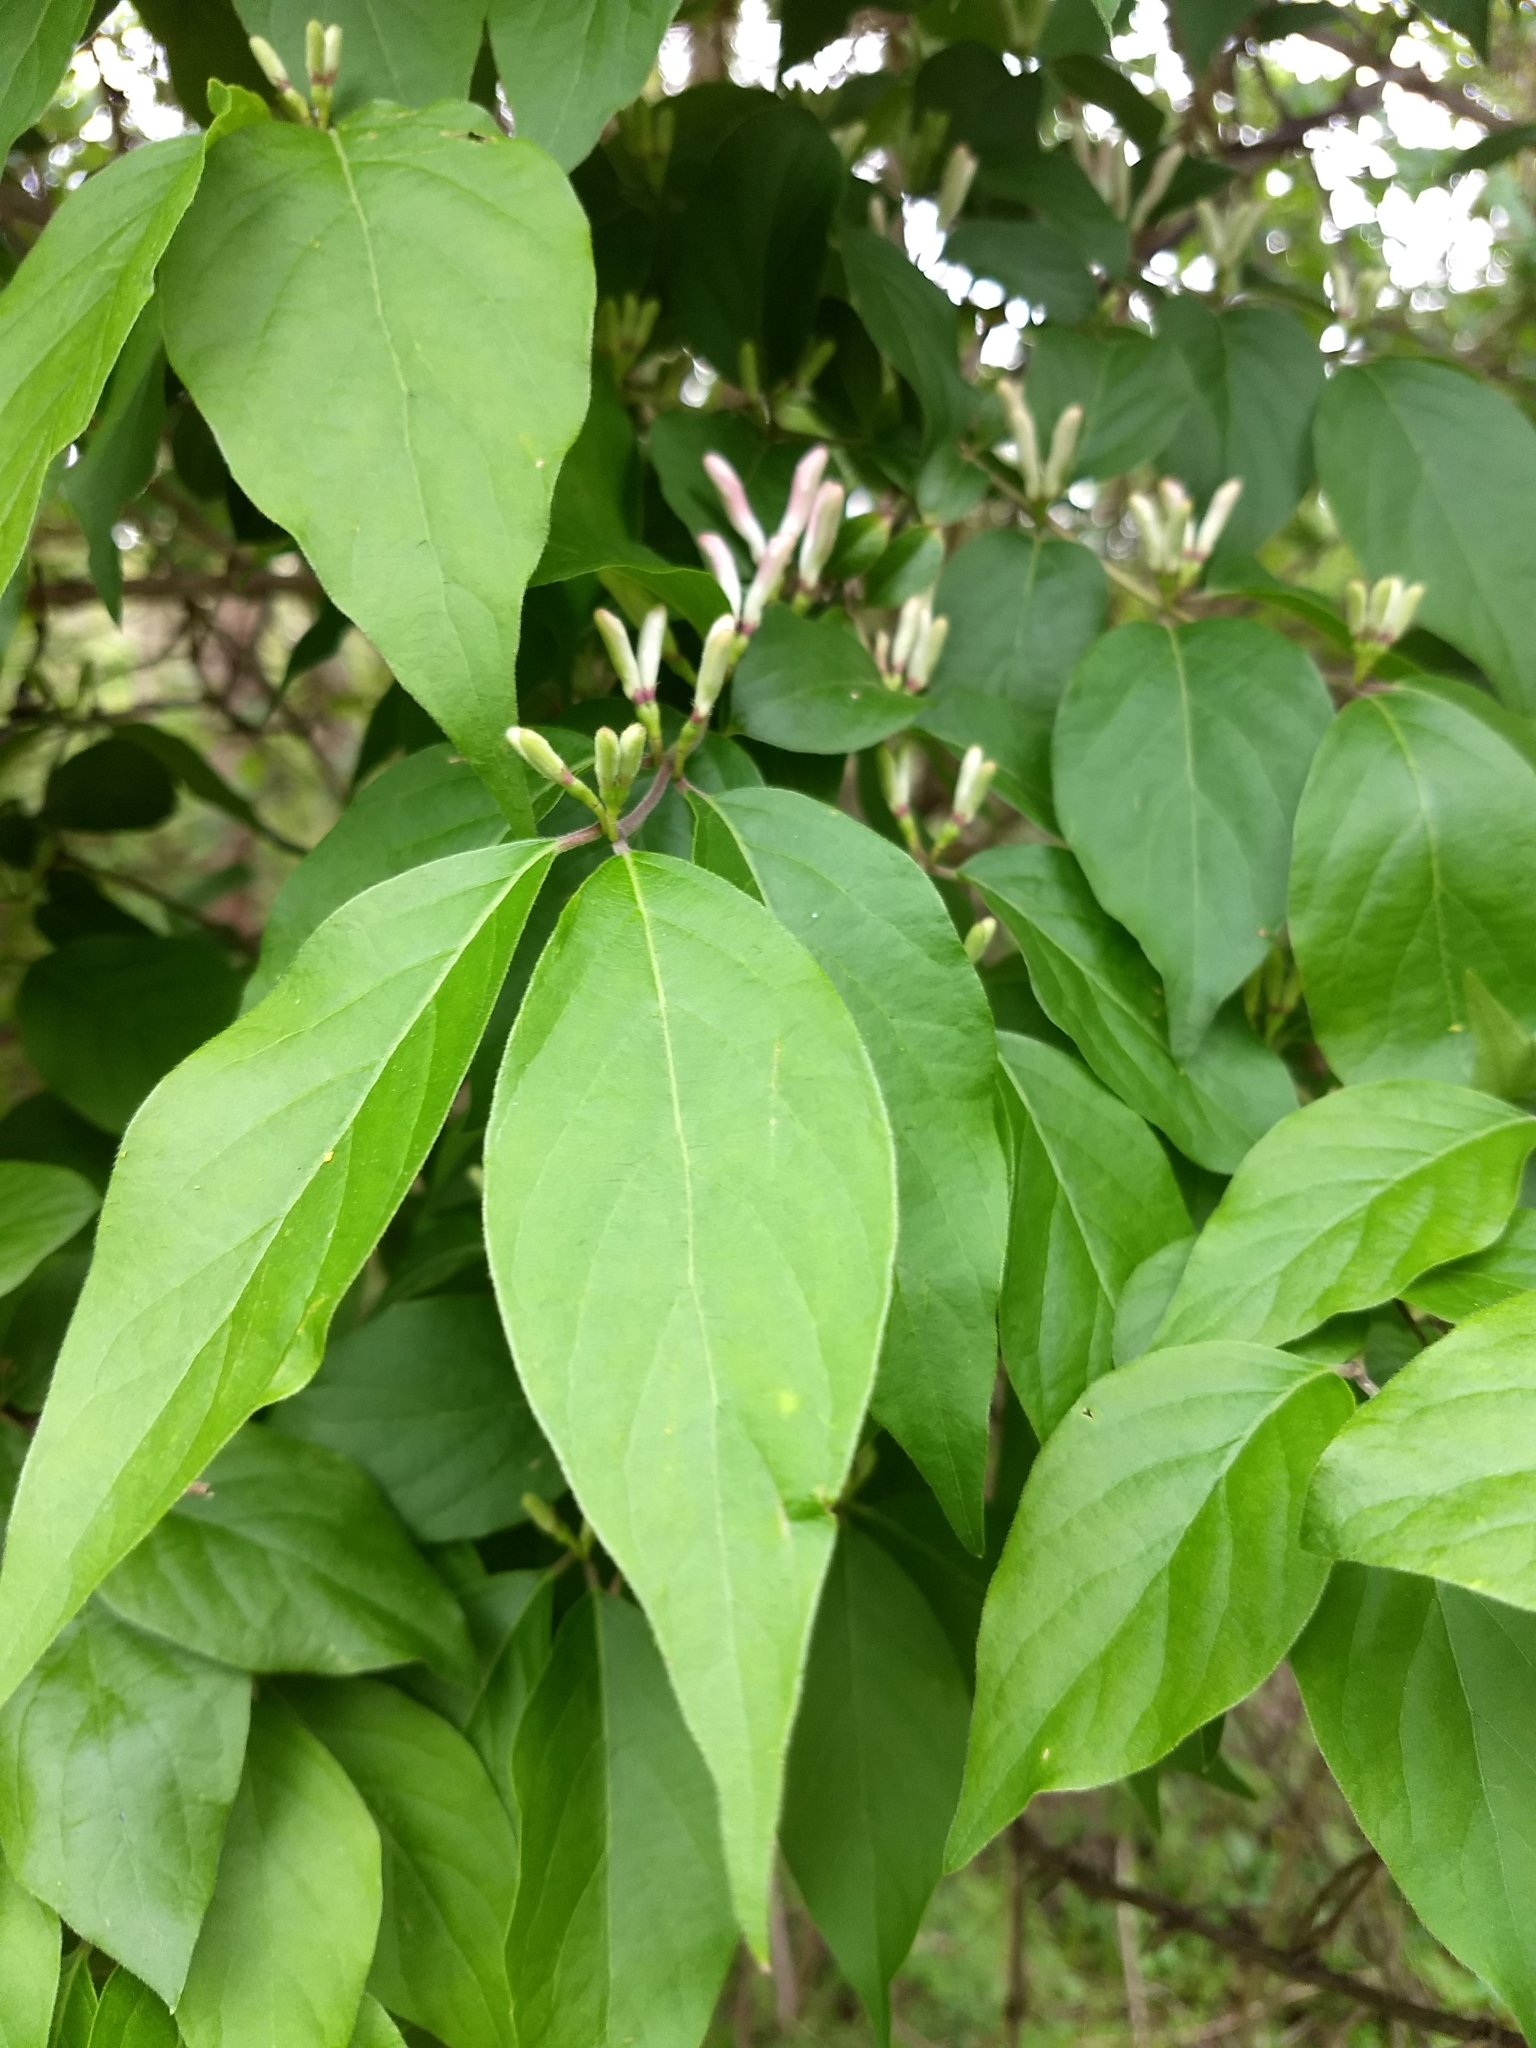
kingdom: Plantae
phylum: Tracheophyta
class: Magnoliopsida
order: Dipsacales
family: Caprifoliaceae
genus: Lonicera
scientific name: Lonicera japonica
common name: Japanese honeysuckle
